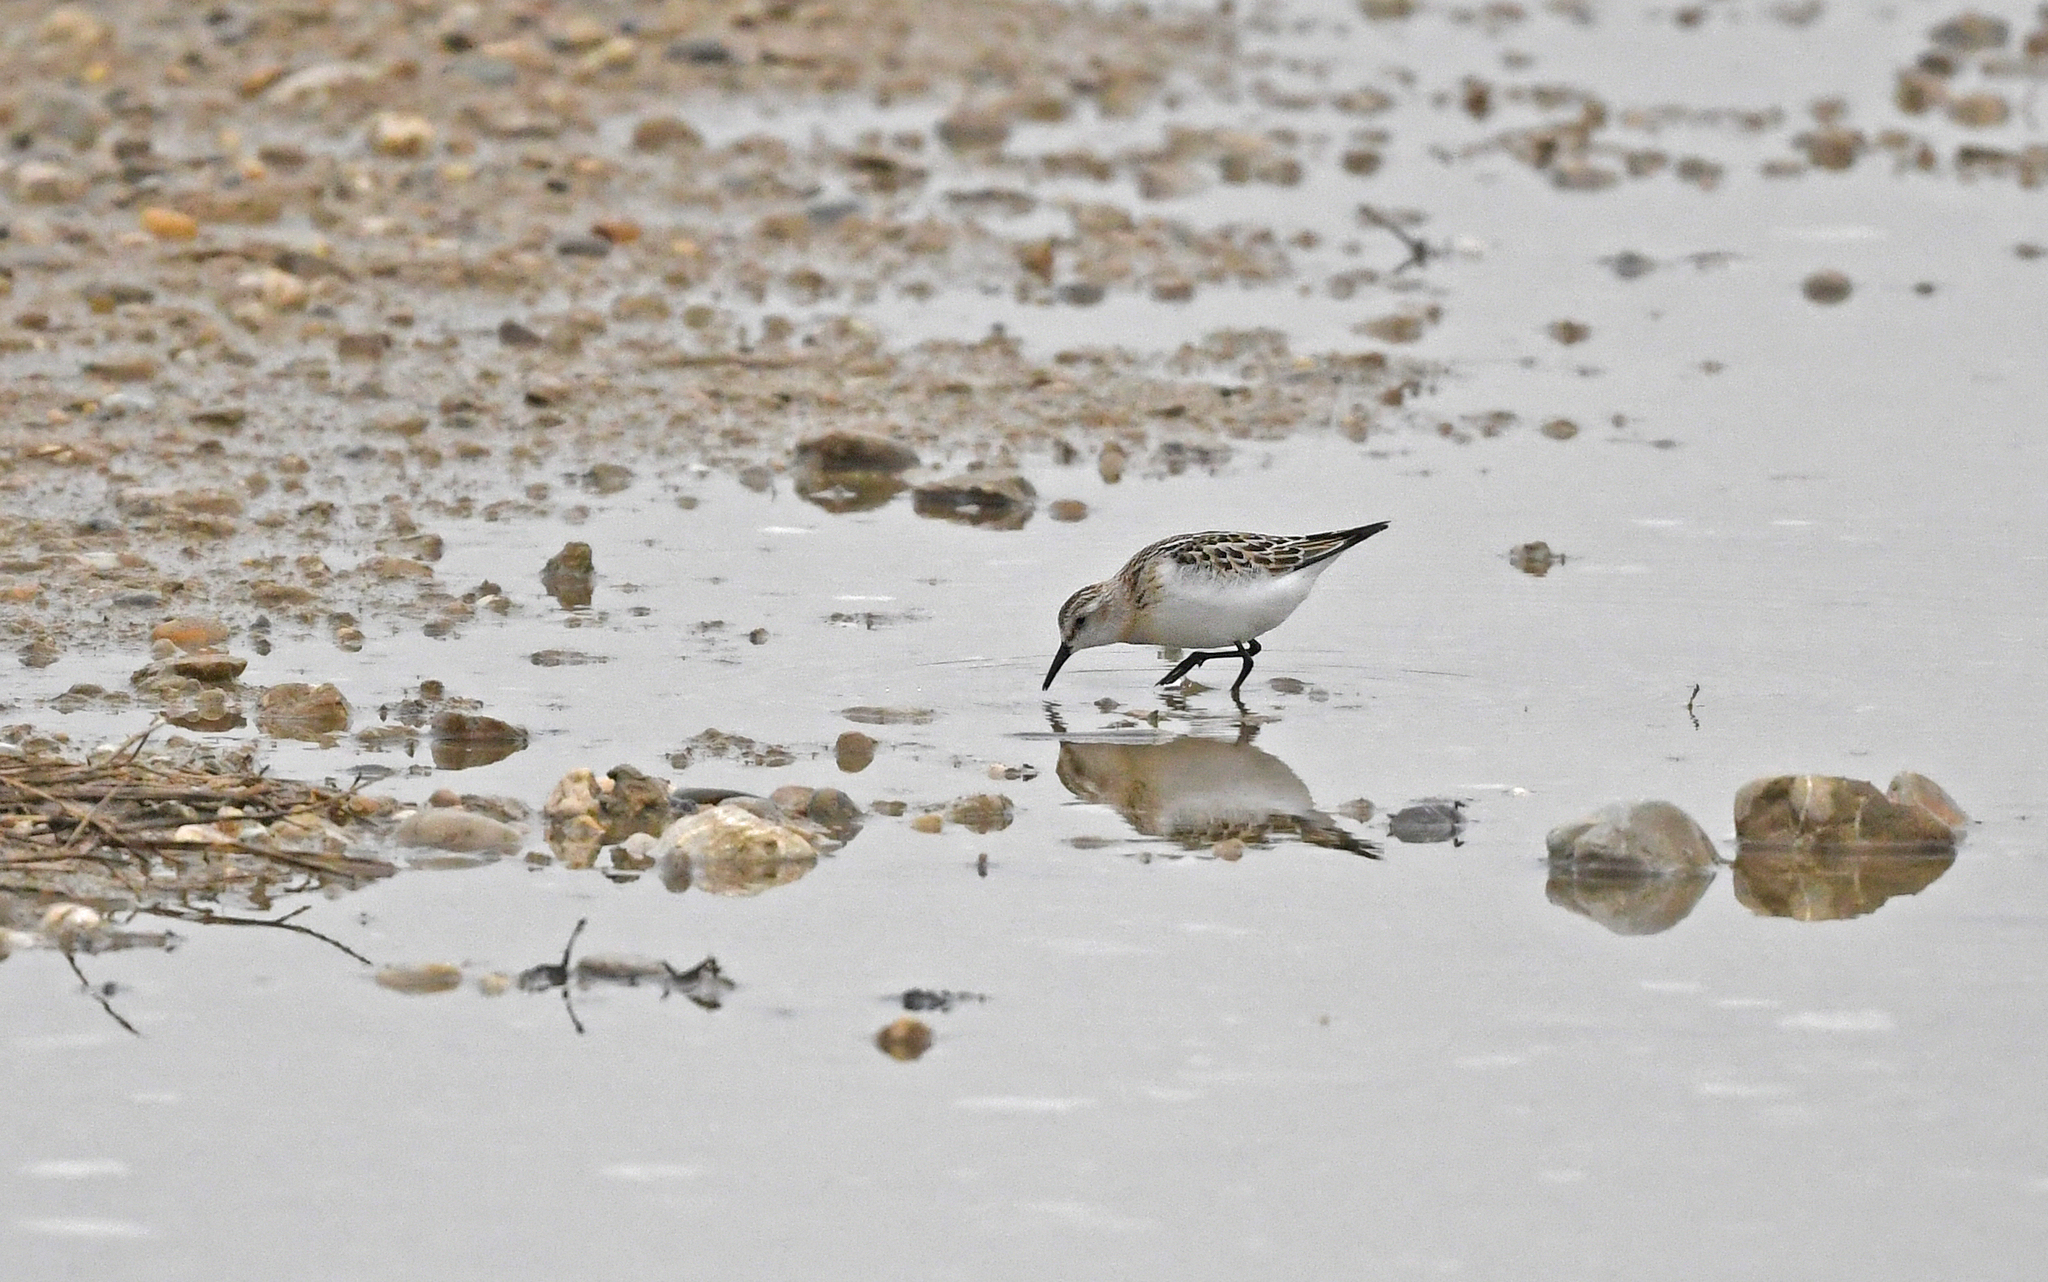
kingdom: Animalia
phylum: Chordata
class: Aves
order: Charadriiformes
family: Scolopacidae
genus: Calidris
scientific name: Calidris minuta
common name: Little stint
